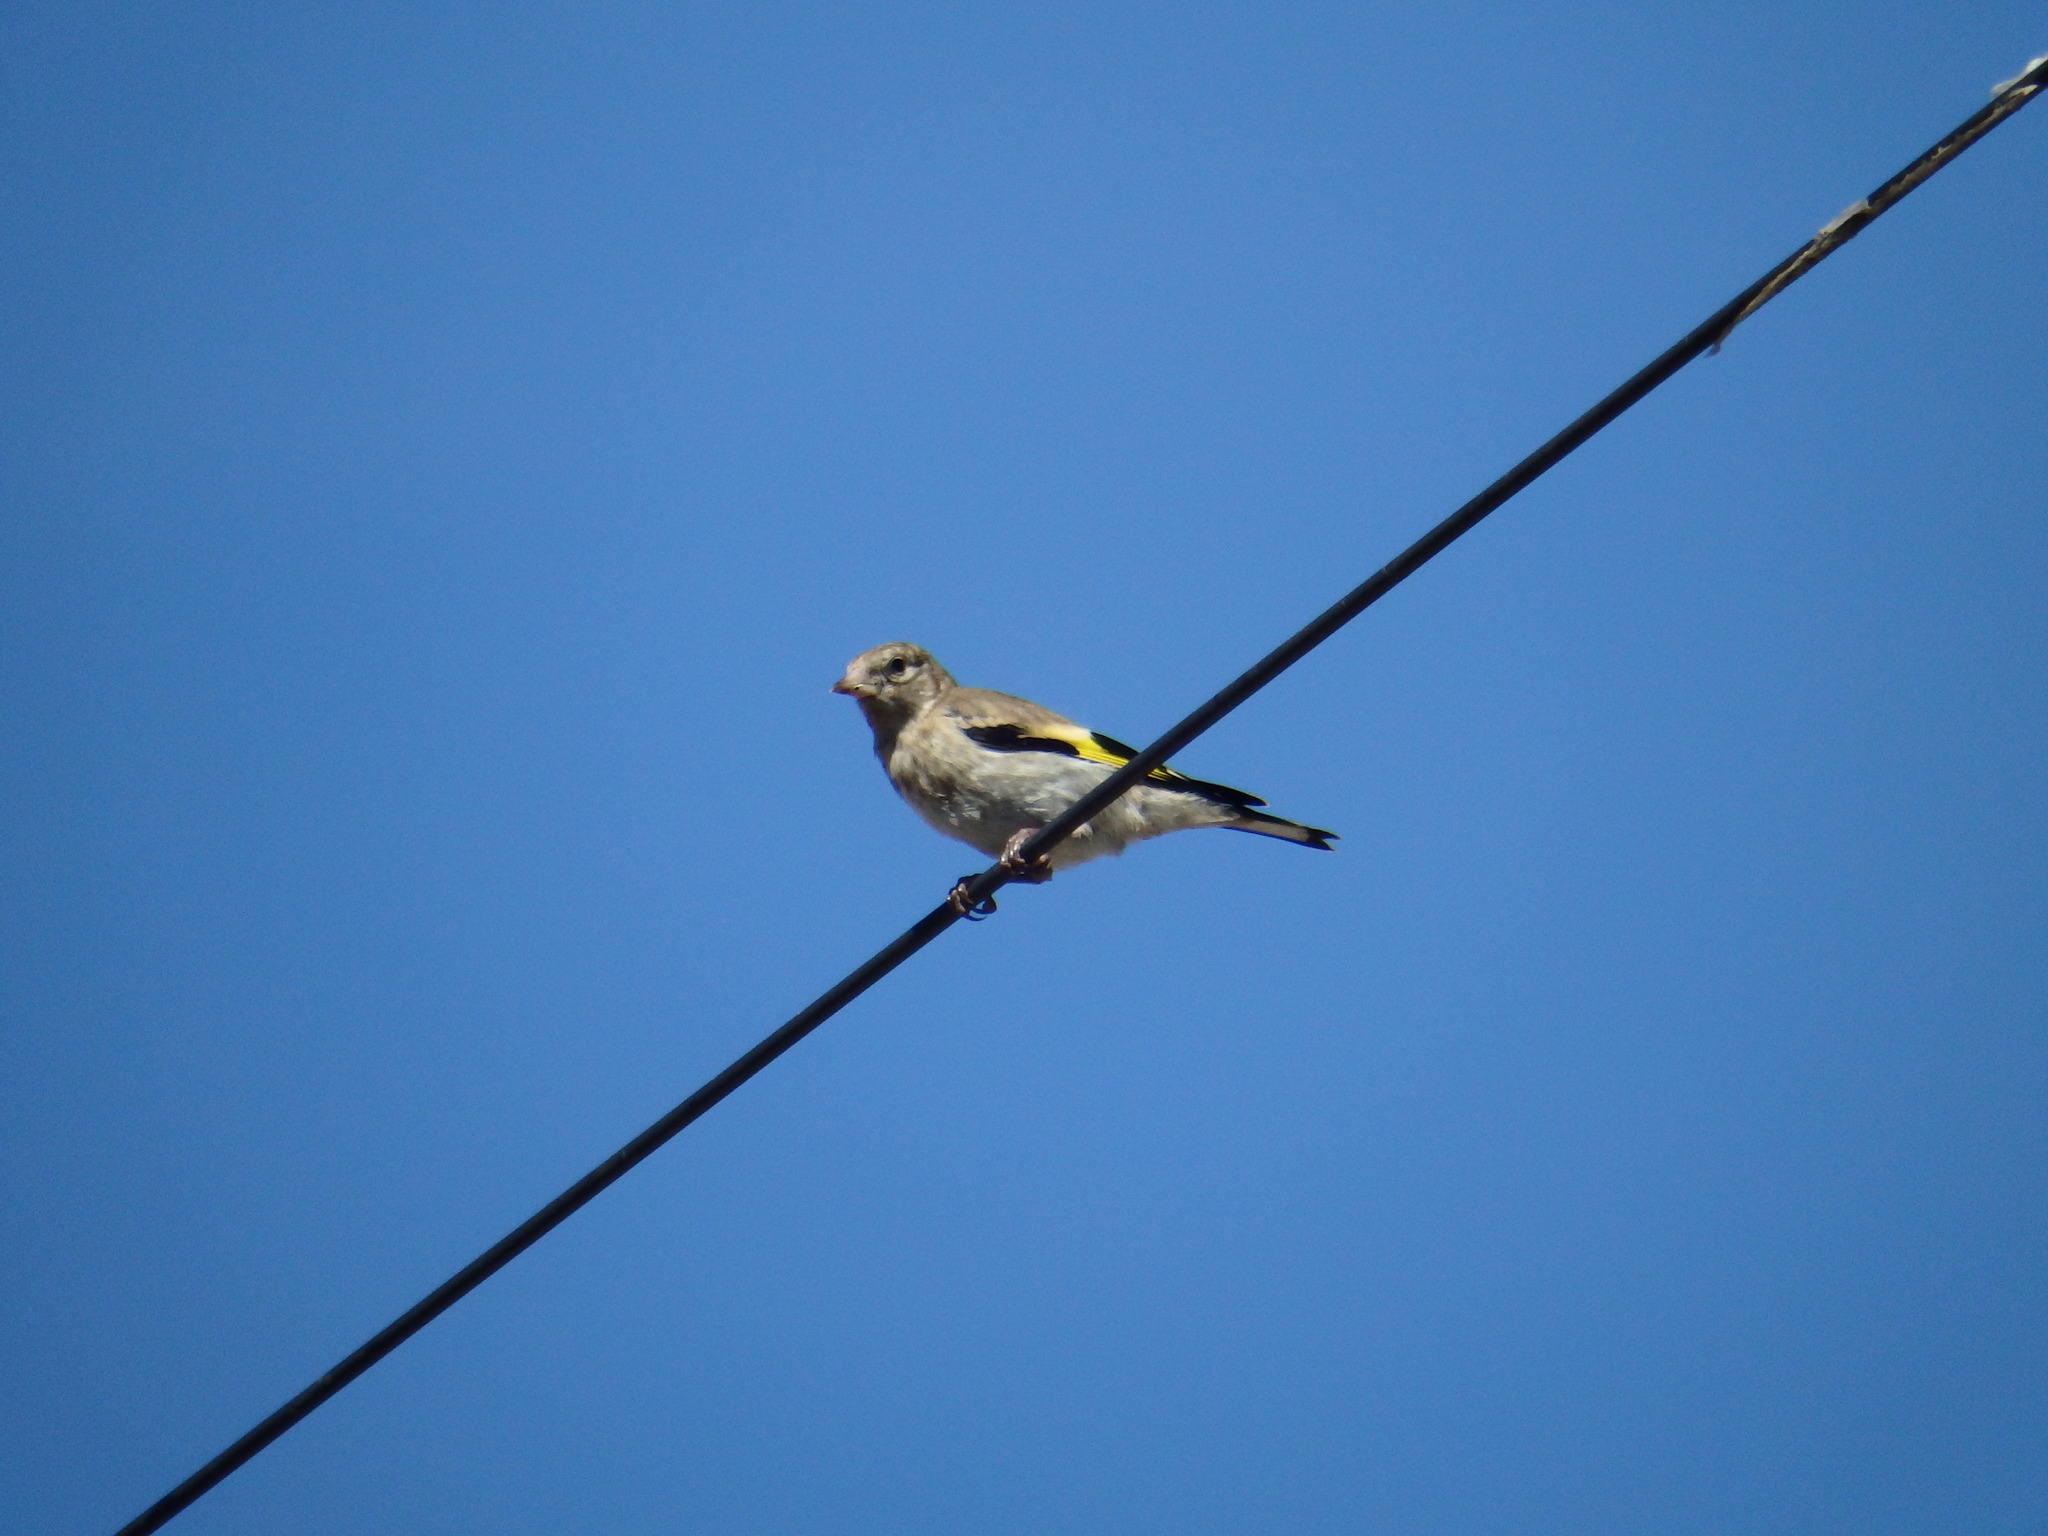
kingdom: Animalia
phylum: Chordata
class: Aves
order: Passeriformes
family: Fringillidae
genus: Carduelis
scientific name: Carduelis carduelis
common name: European goldfinch
